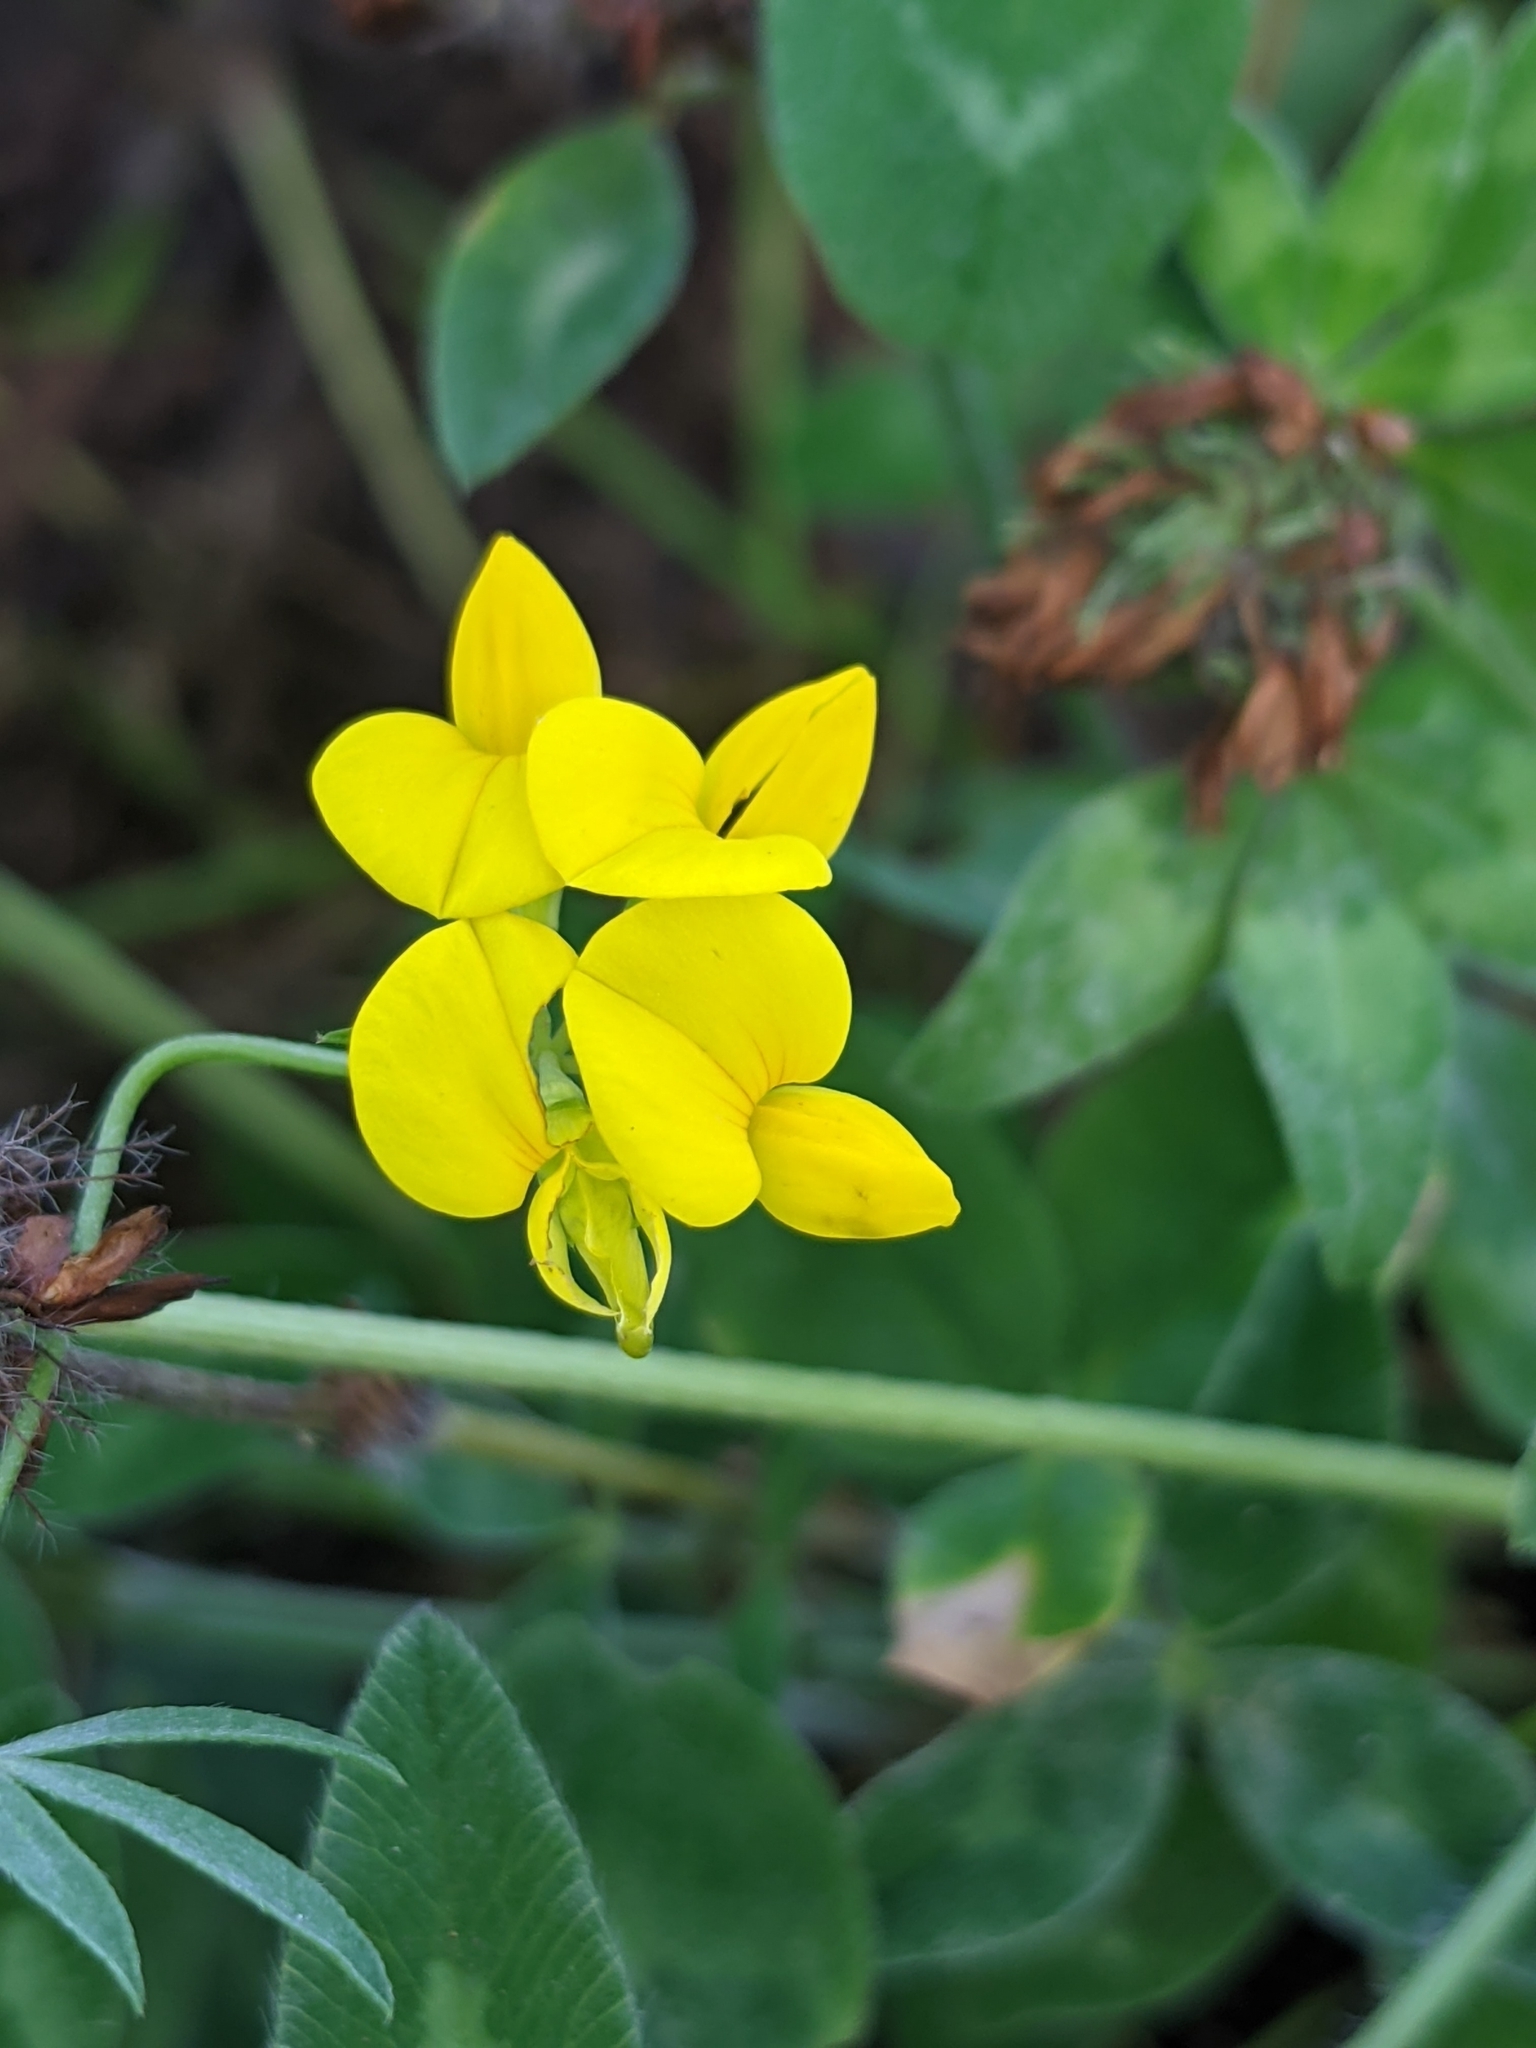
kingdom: Plantae
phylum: Tracheophyta
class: Magnoliopsida
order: Fabales
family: Fabaceae
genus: Lotus
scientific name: Lotus tenuis
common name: Narrow-leaved bird's-foot-trefoil
